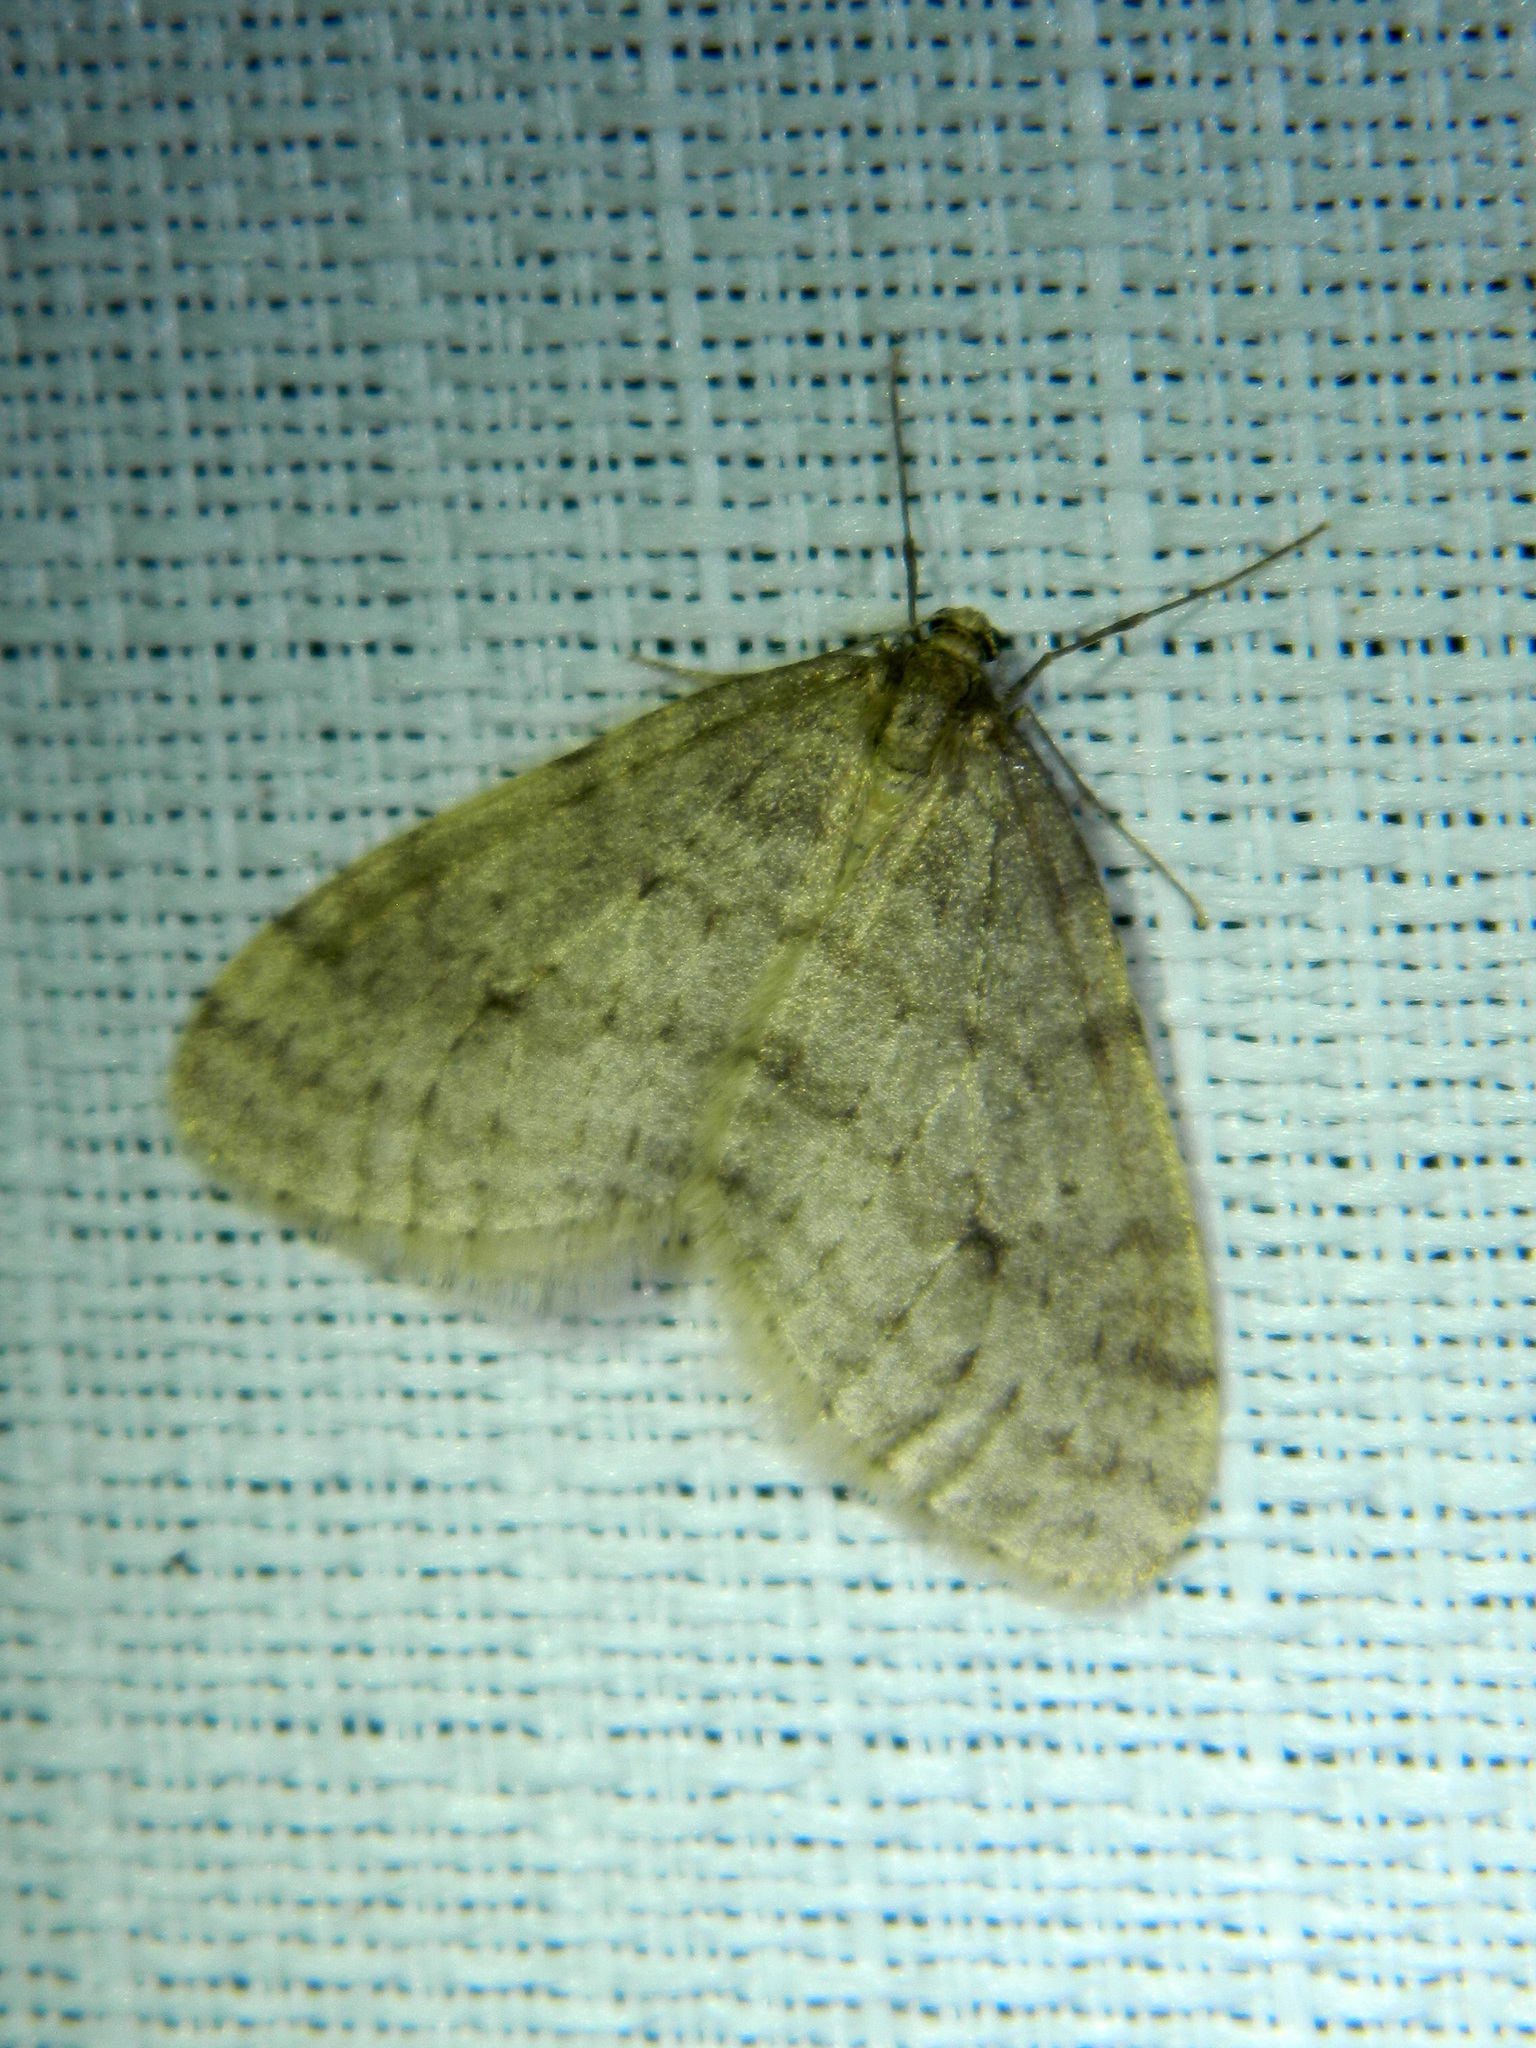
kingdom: Animalia
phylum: Arthropoda
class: Insecta
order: Lepidoptera
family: Geometridae
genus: Operophtera
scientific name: Operophtera bruceata
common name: Bruce spanworm
